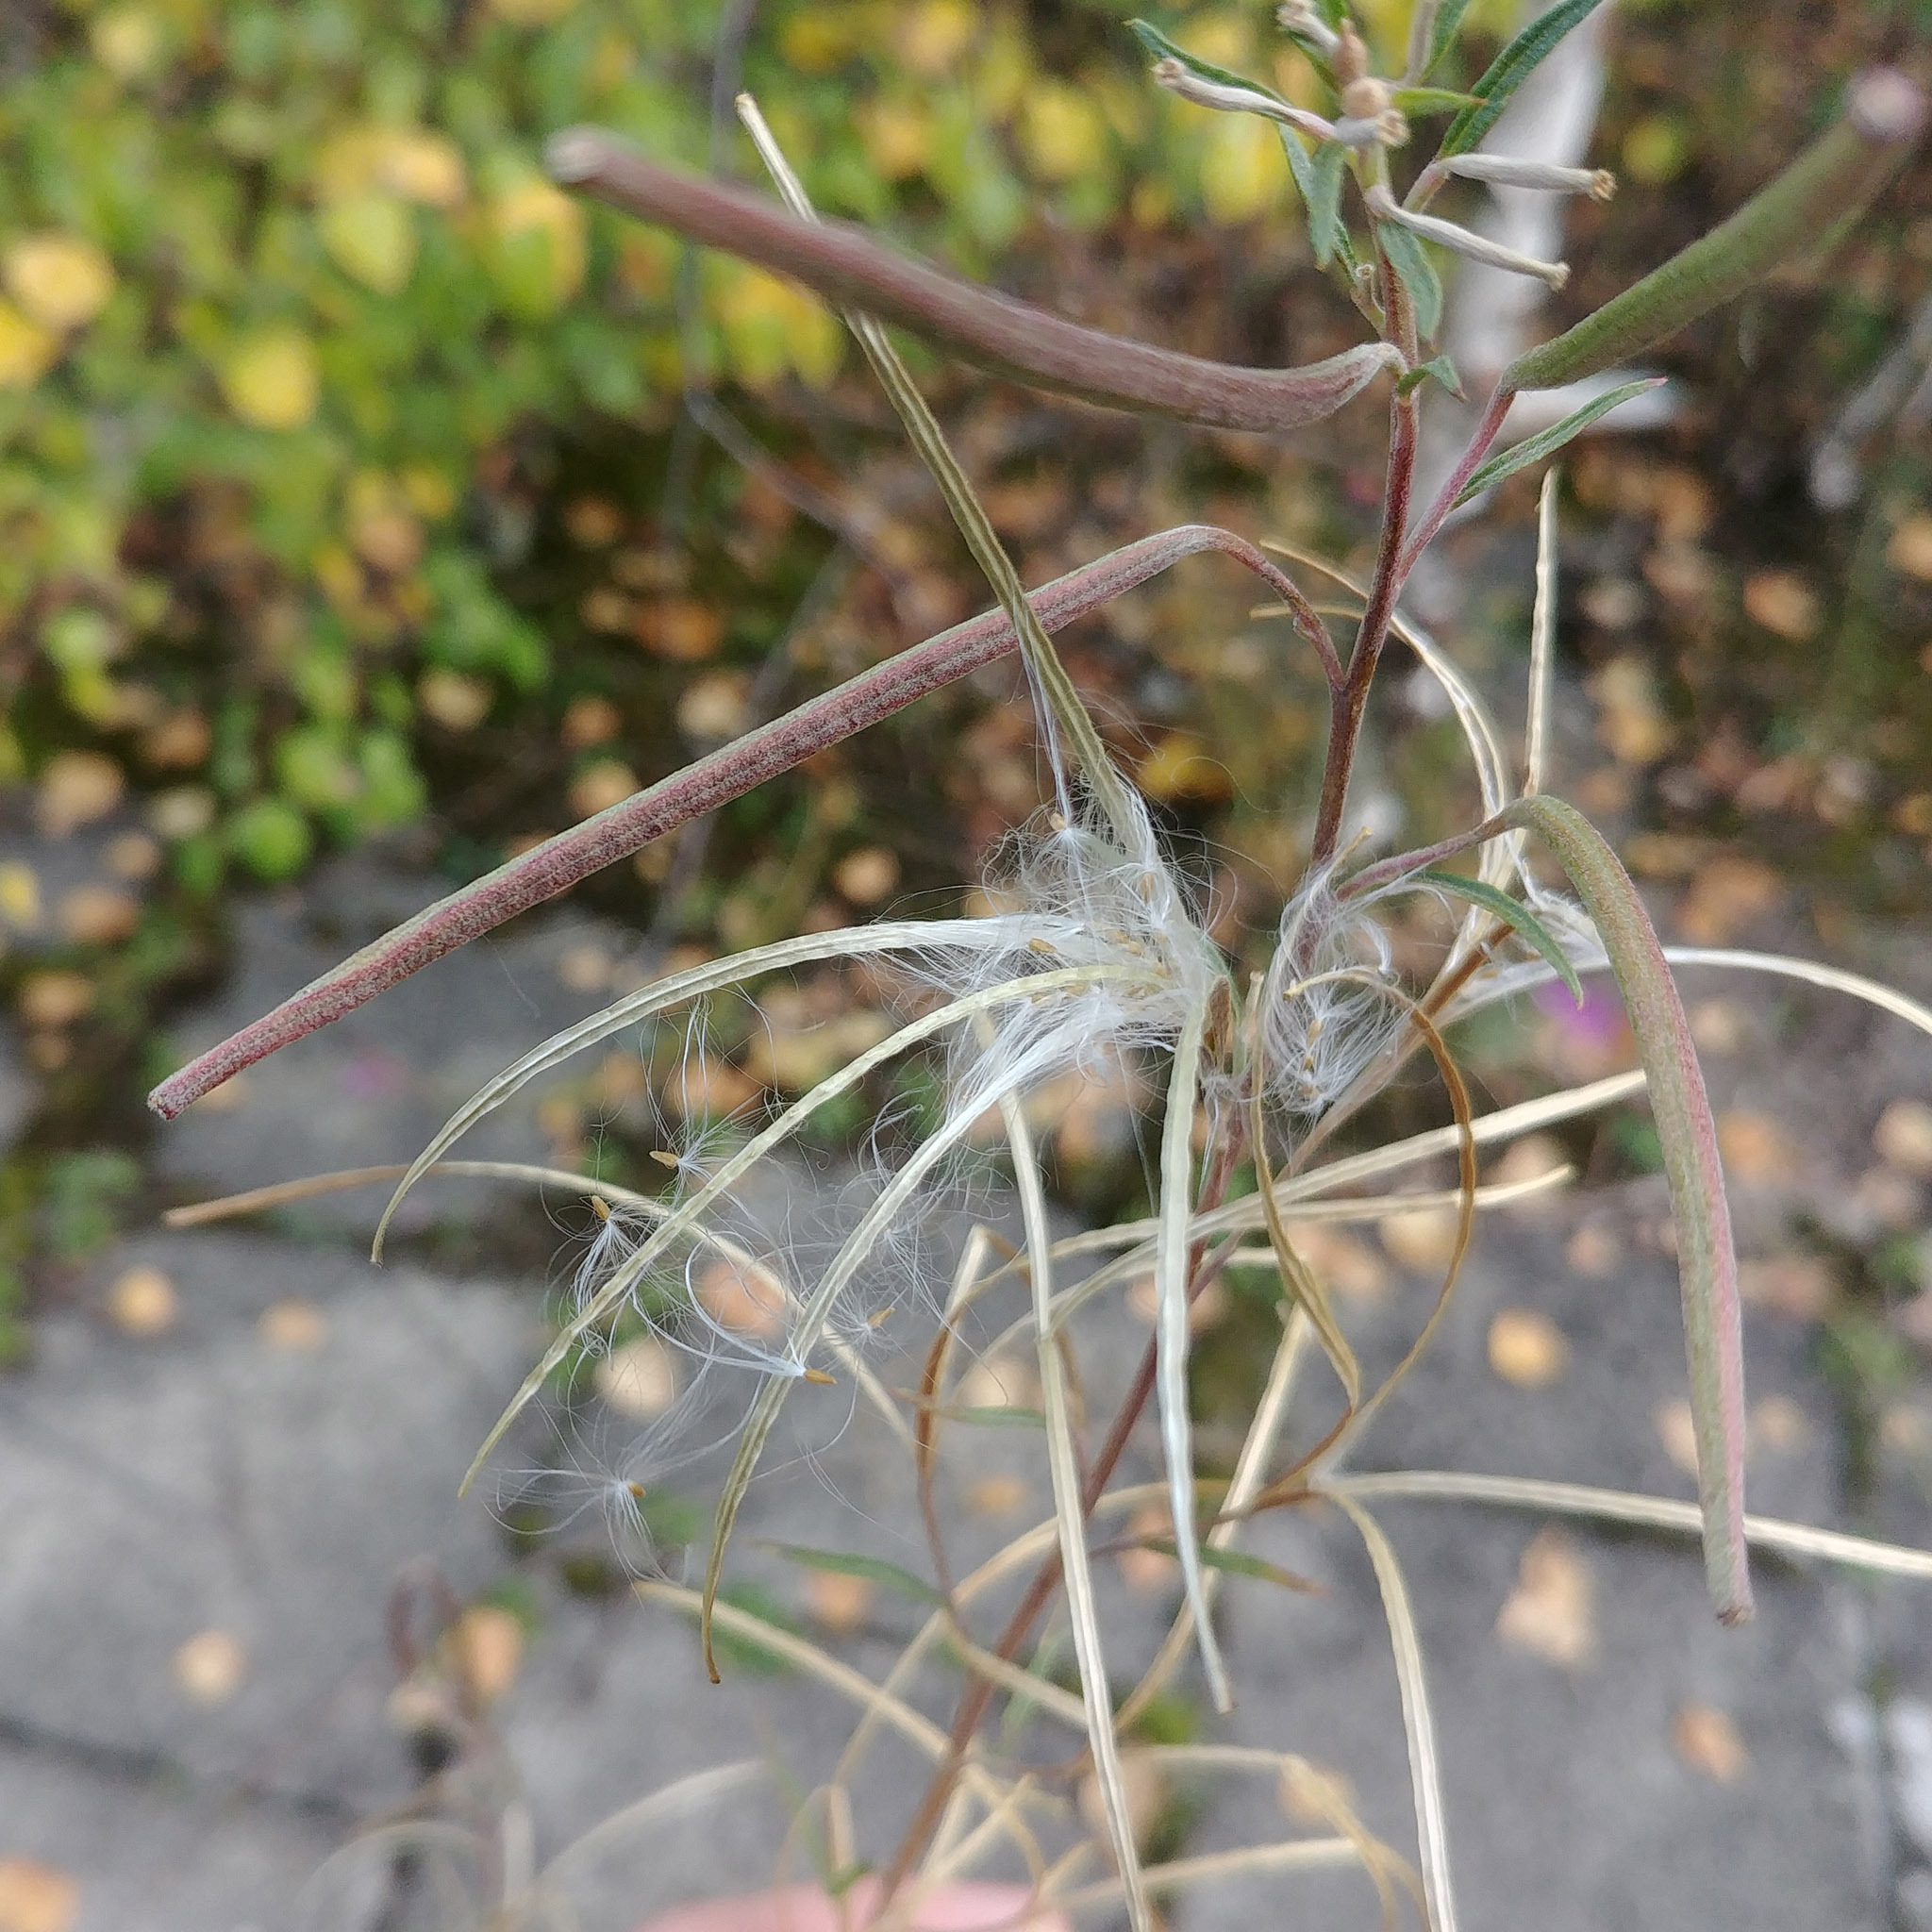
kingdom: Plantae
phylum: Tracheophyta
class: Magnoliopsida
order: Myrtales
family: Onagraceae
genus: Chamaenerion
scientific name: Chamaenerion dodonaei
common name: Rosemary-leaved willowherb
